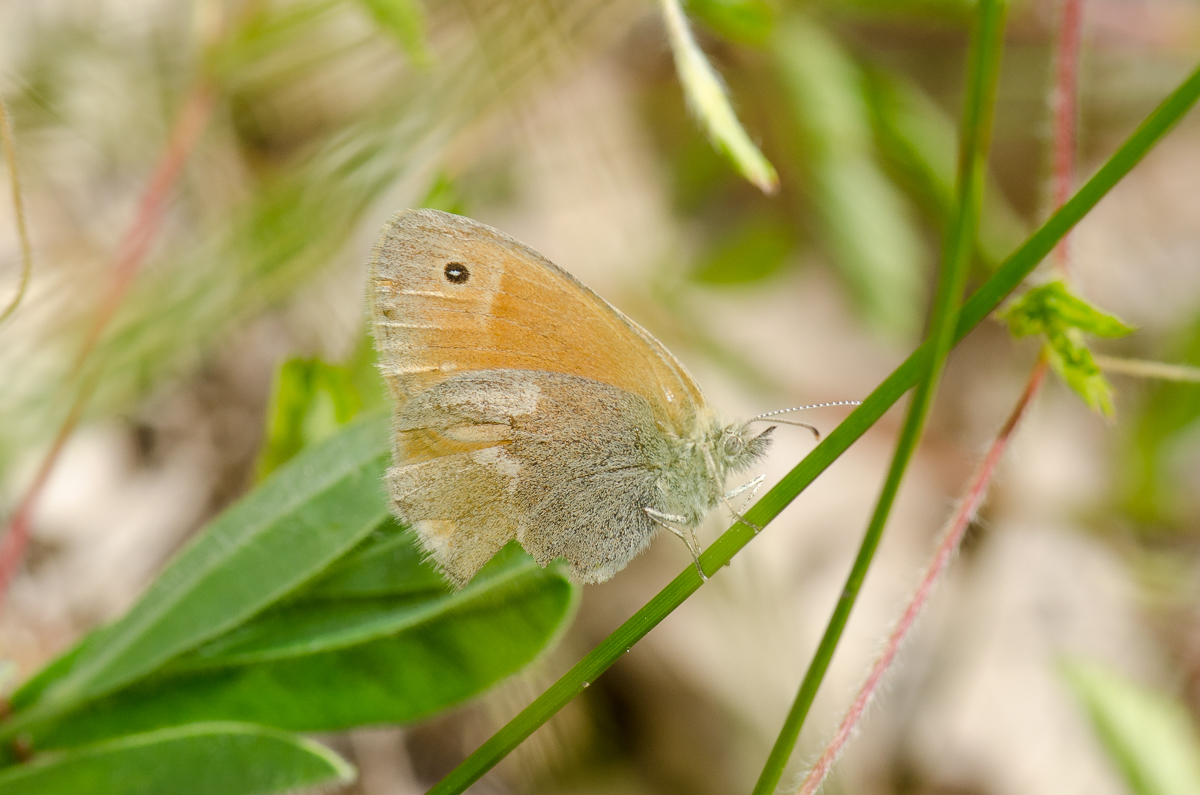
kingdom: Animalia
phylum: Arthropoda
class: Insecta
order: Lepidoptera
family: Nymphalidae
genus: Coenonympha
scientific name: Coenonympha california
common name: Common ringlet
